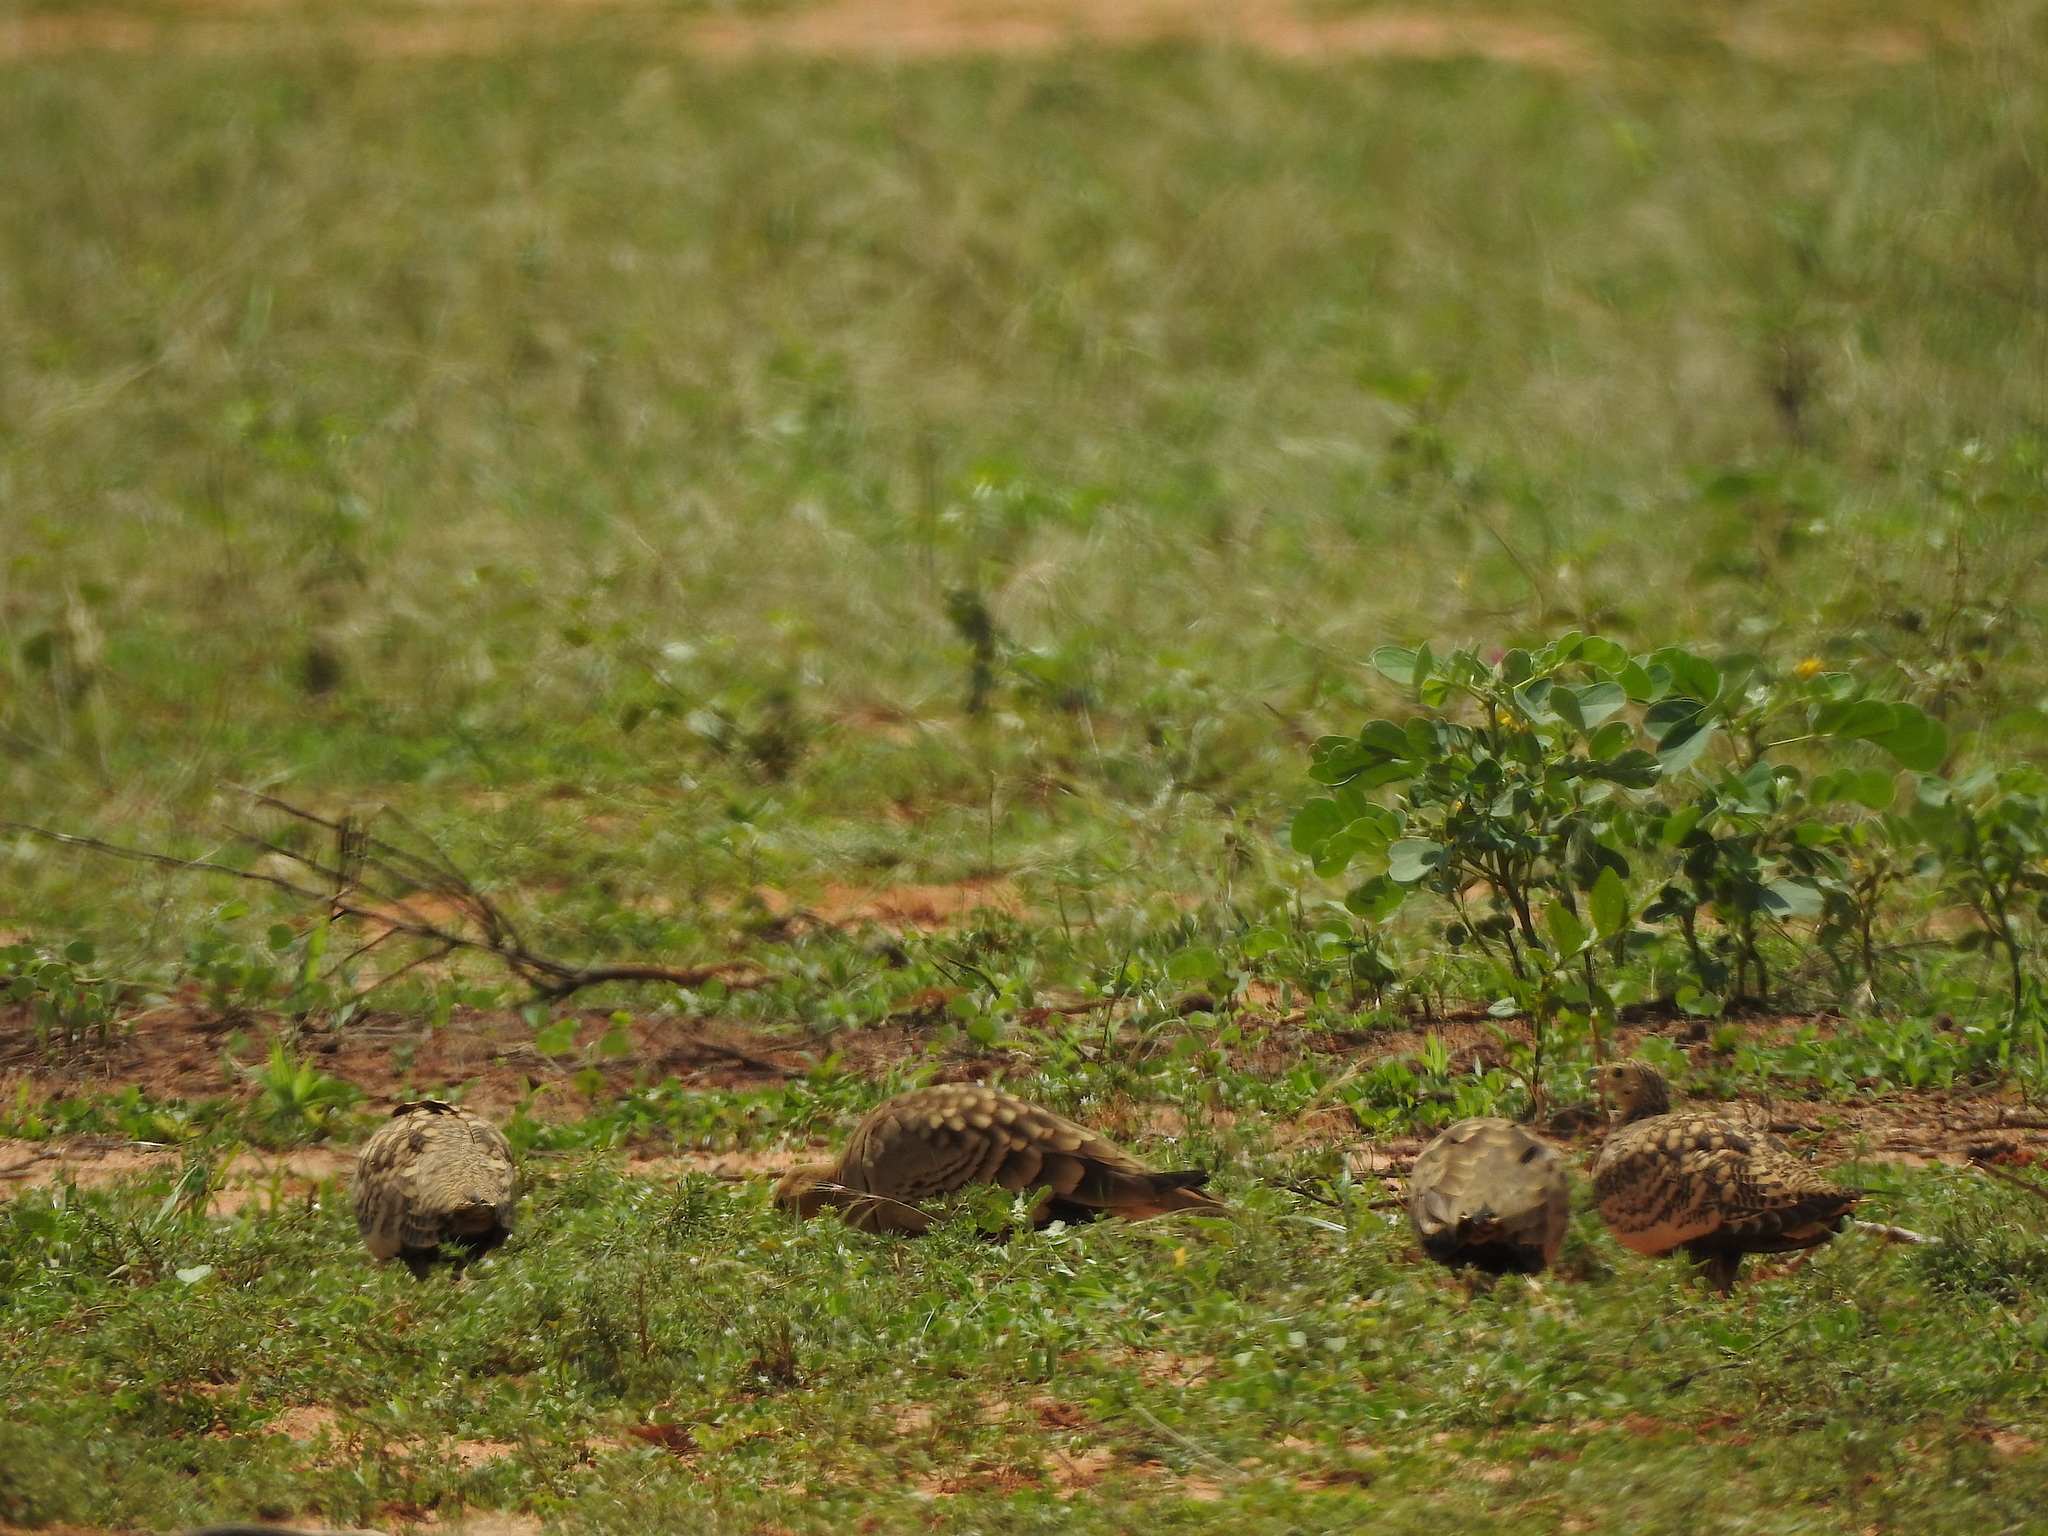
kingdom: Animalia
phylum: Chordata
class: Aves
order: Pteroclidiformes
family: Pteroclididae
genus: Pterocles
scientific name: Pterocles exustus
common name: Chestnut-bellied sandgrouse
